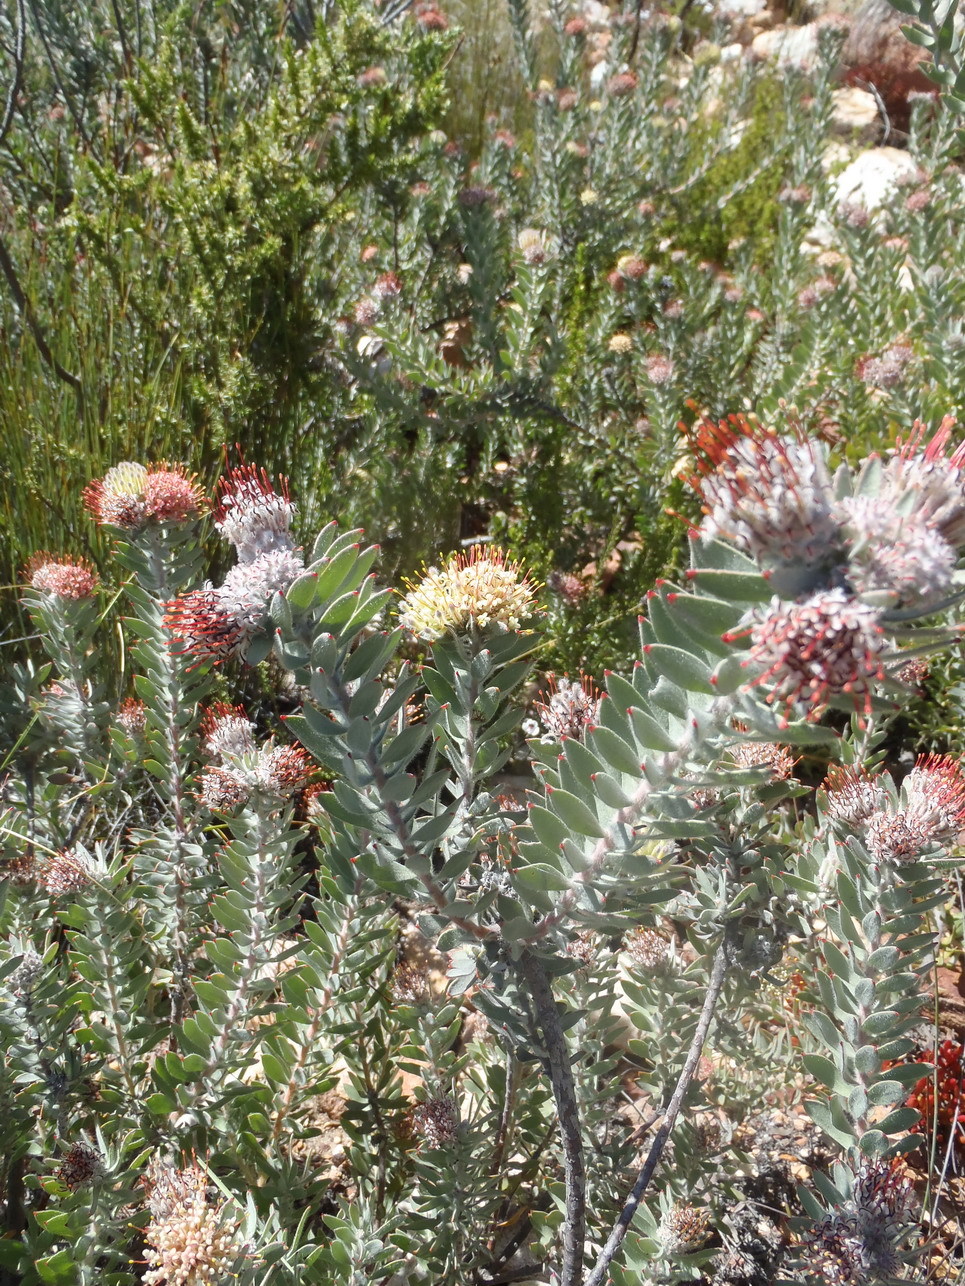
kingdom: Plantae
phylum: Tracheophyta
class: Magnoliopsida
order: Proteales
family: Proteaceae
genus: Leucospermum
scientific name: Leucospermum wittebergense
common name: Swartberg pincushion
